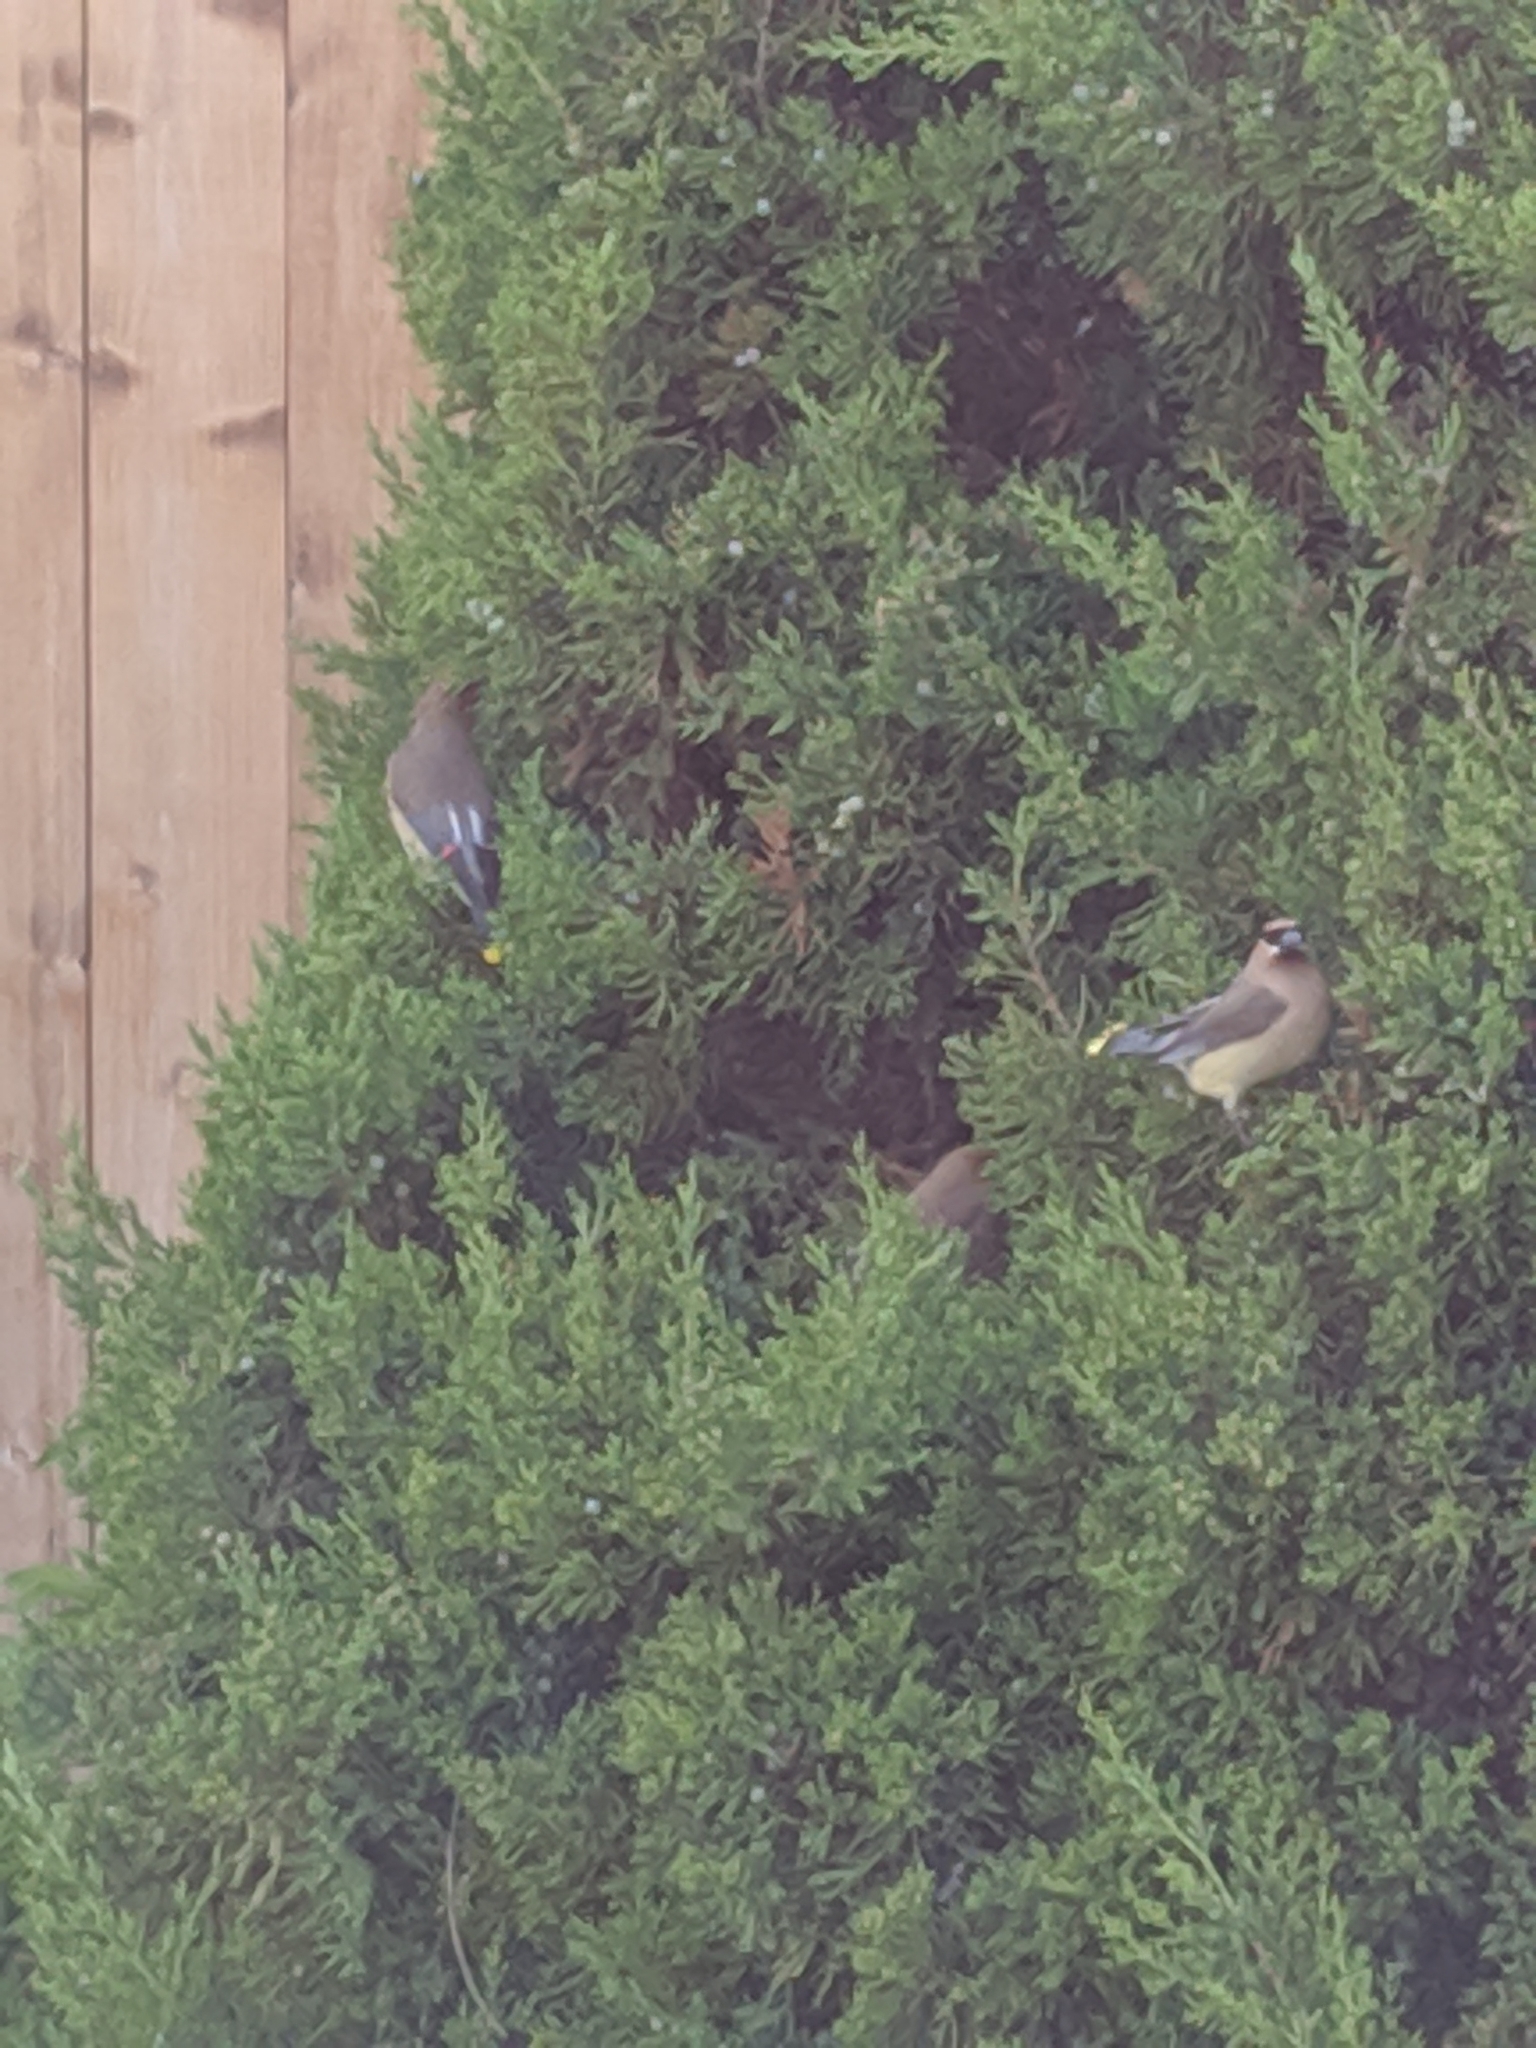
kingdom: Animalia
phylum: Chordata
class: Aves
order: Passeriformes
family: Bombycillidae
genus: Bombycilla
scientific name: Bombycilla cedrorum
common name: Cedar waxwing
